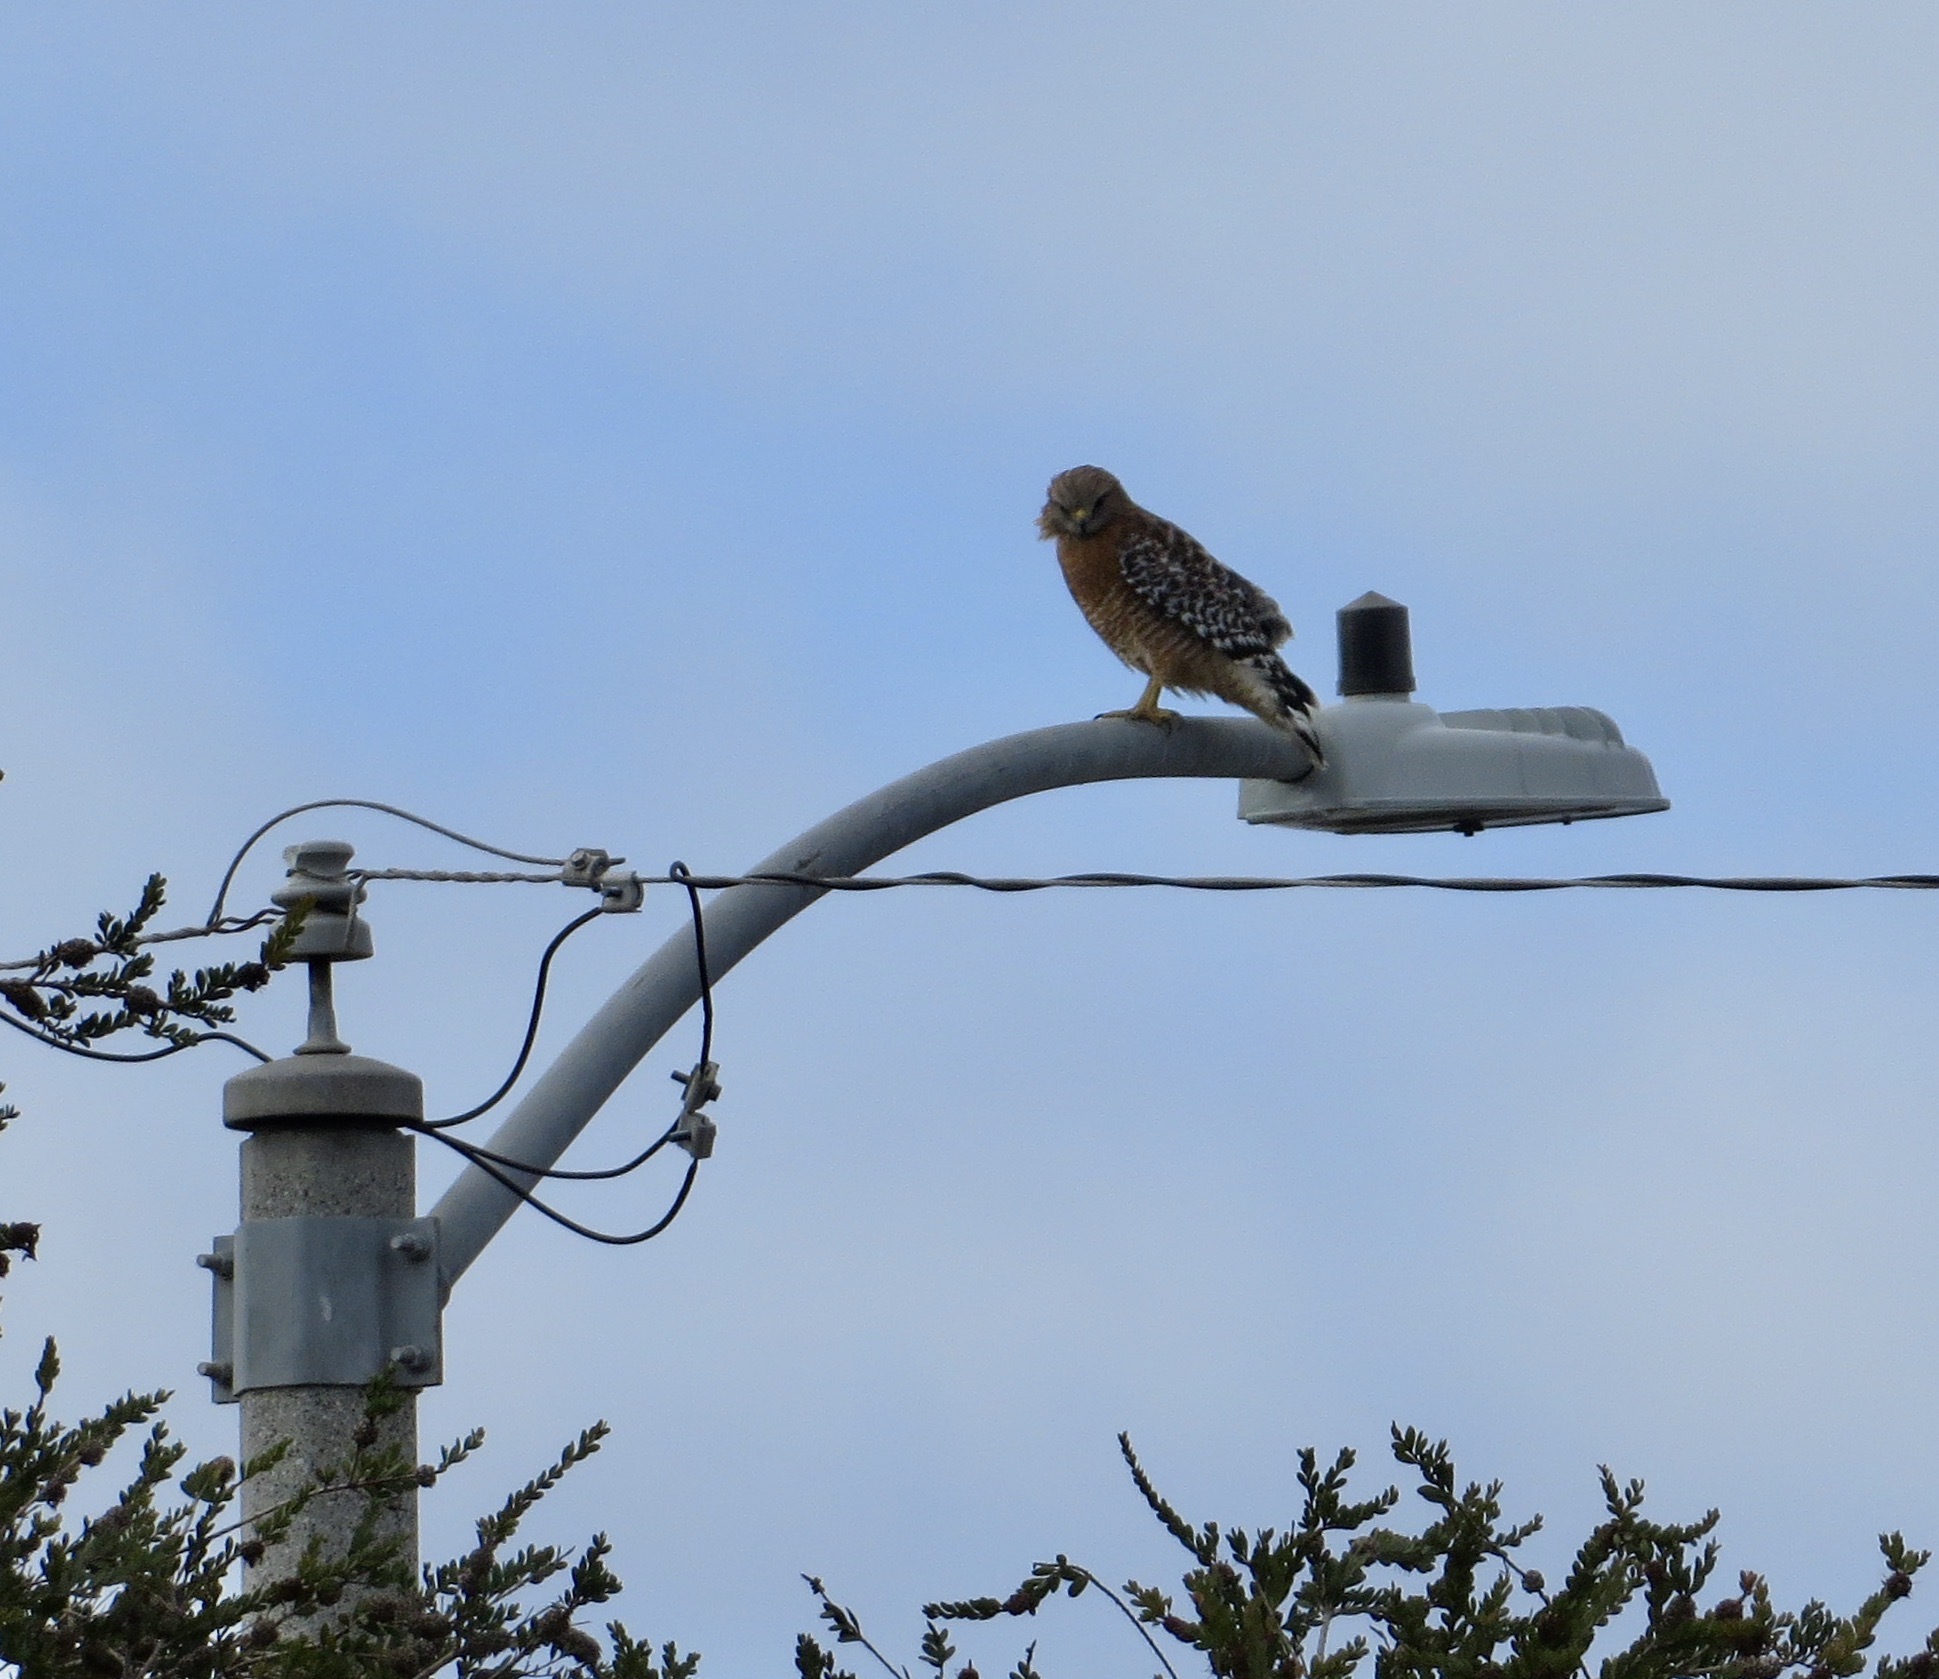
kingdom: Animalia
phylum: Chordata
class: Aves
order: Accipitriformes
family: Accipitridae
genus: Buteo
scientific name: Buteo lineatus
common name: Red-shouldered hawk
